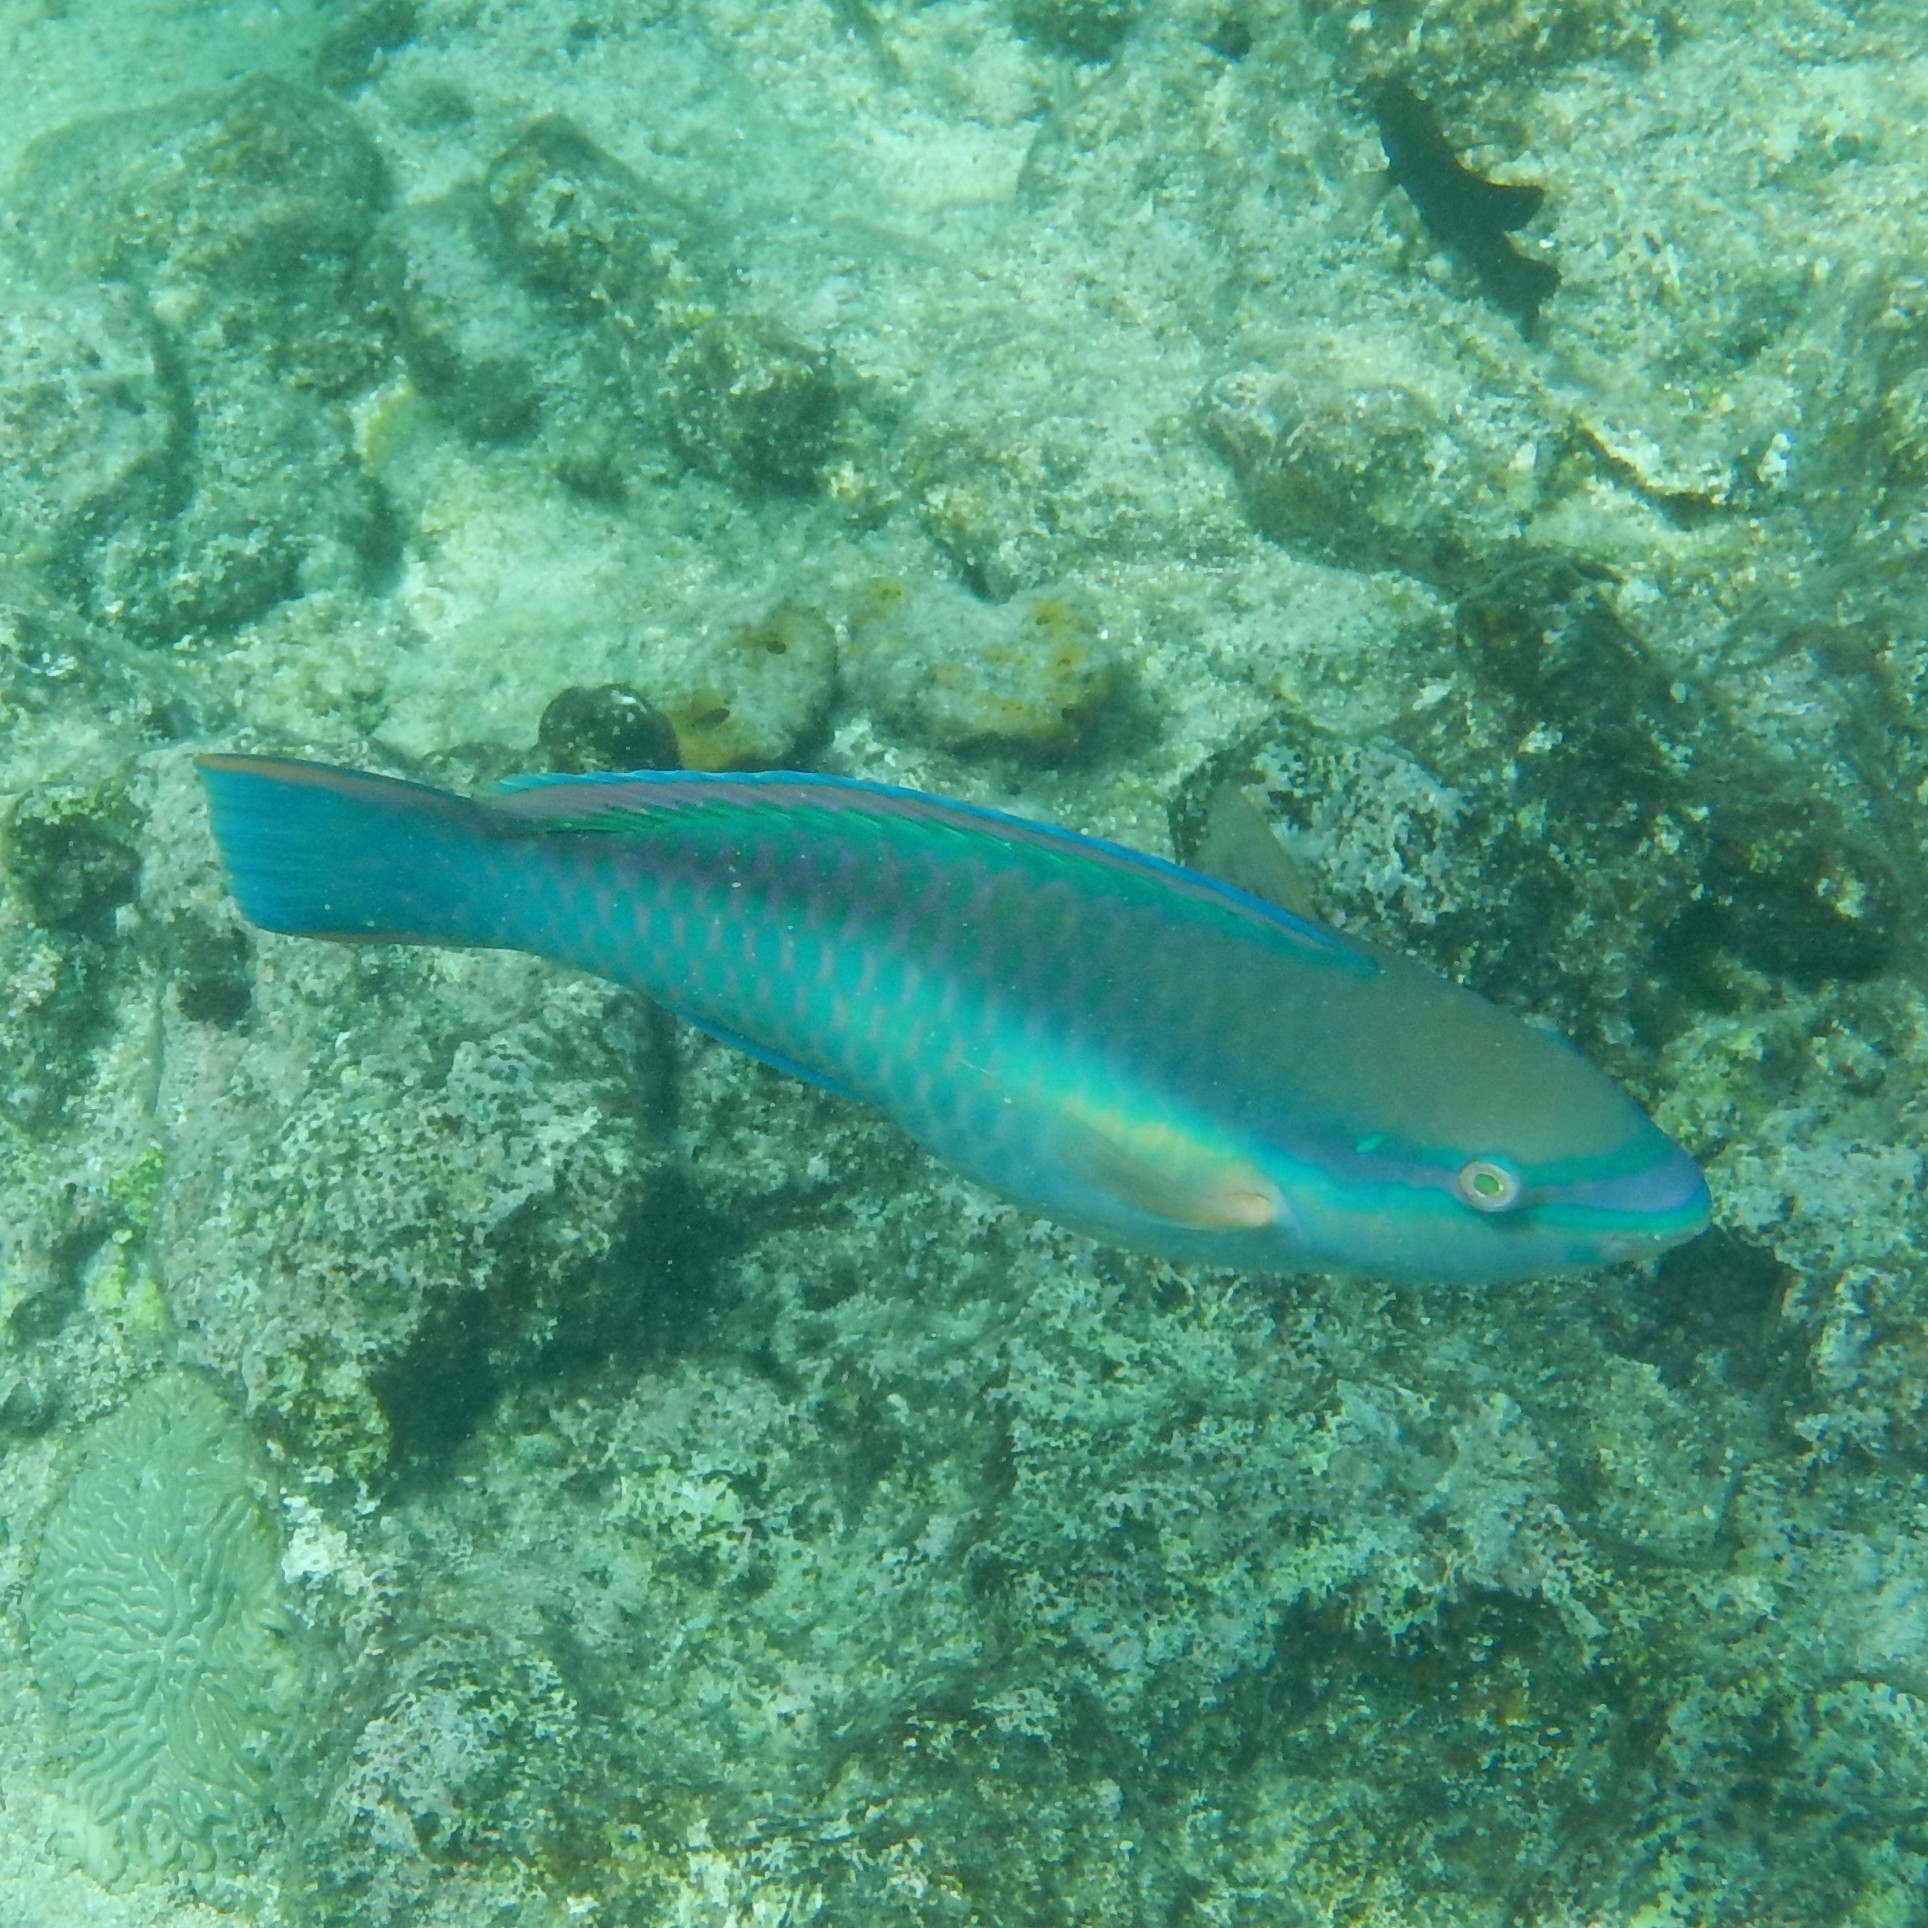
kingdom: Animalia
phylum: Chordata
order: Perciformes
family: Scaridae
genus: Scarus
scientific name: Scarus taeniopterus
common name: Princess parrotfish
